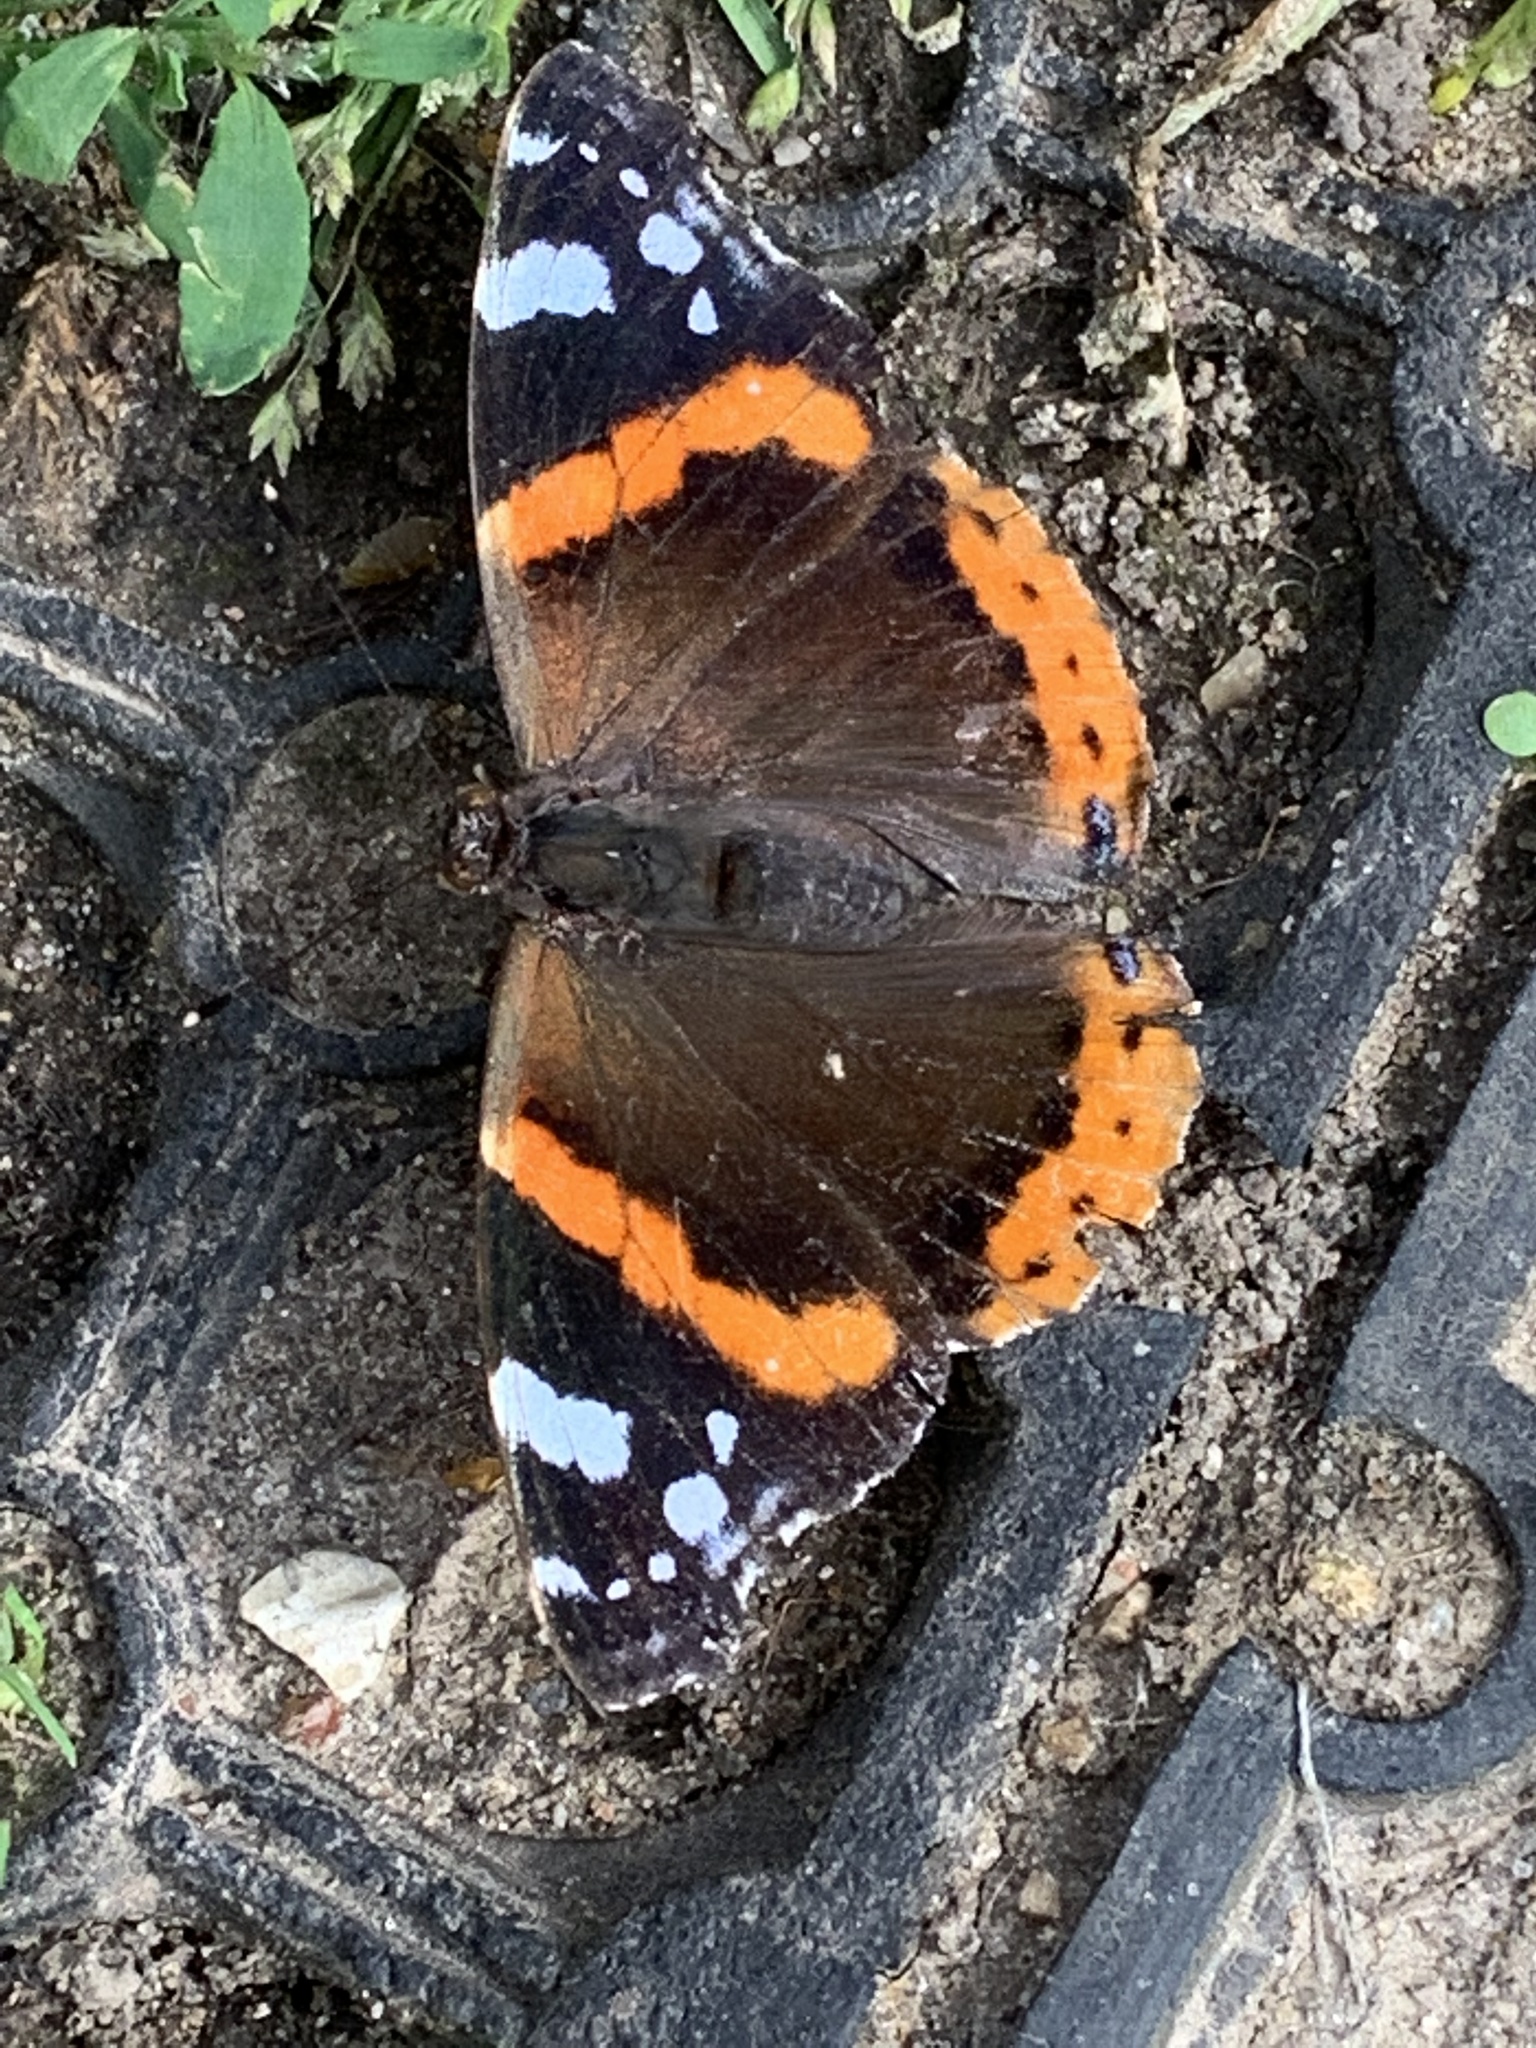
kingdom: Animalia
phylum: Arthropoda
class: Insecta
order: Lepidoptera
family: Nymphalidae
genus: Vanessa
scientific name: Vanessa atalanta
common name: Red admiral
